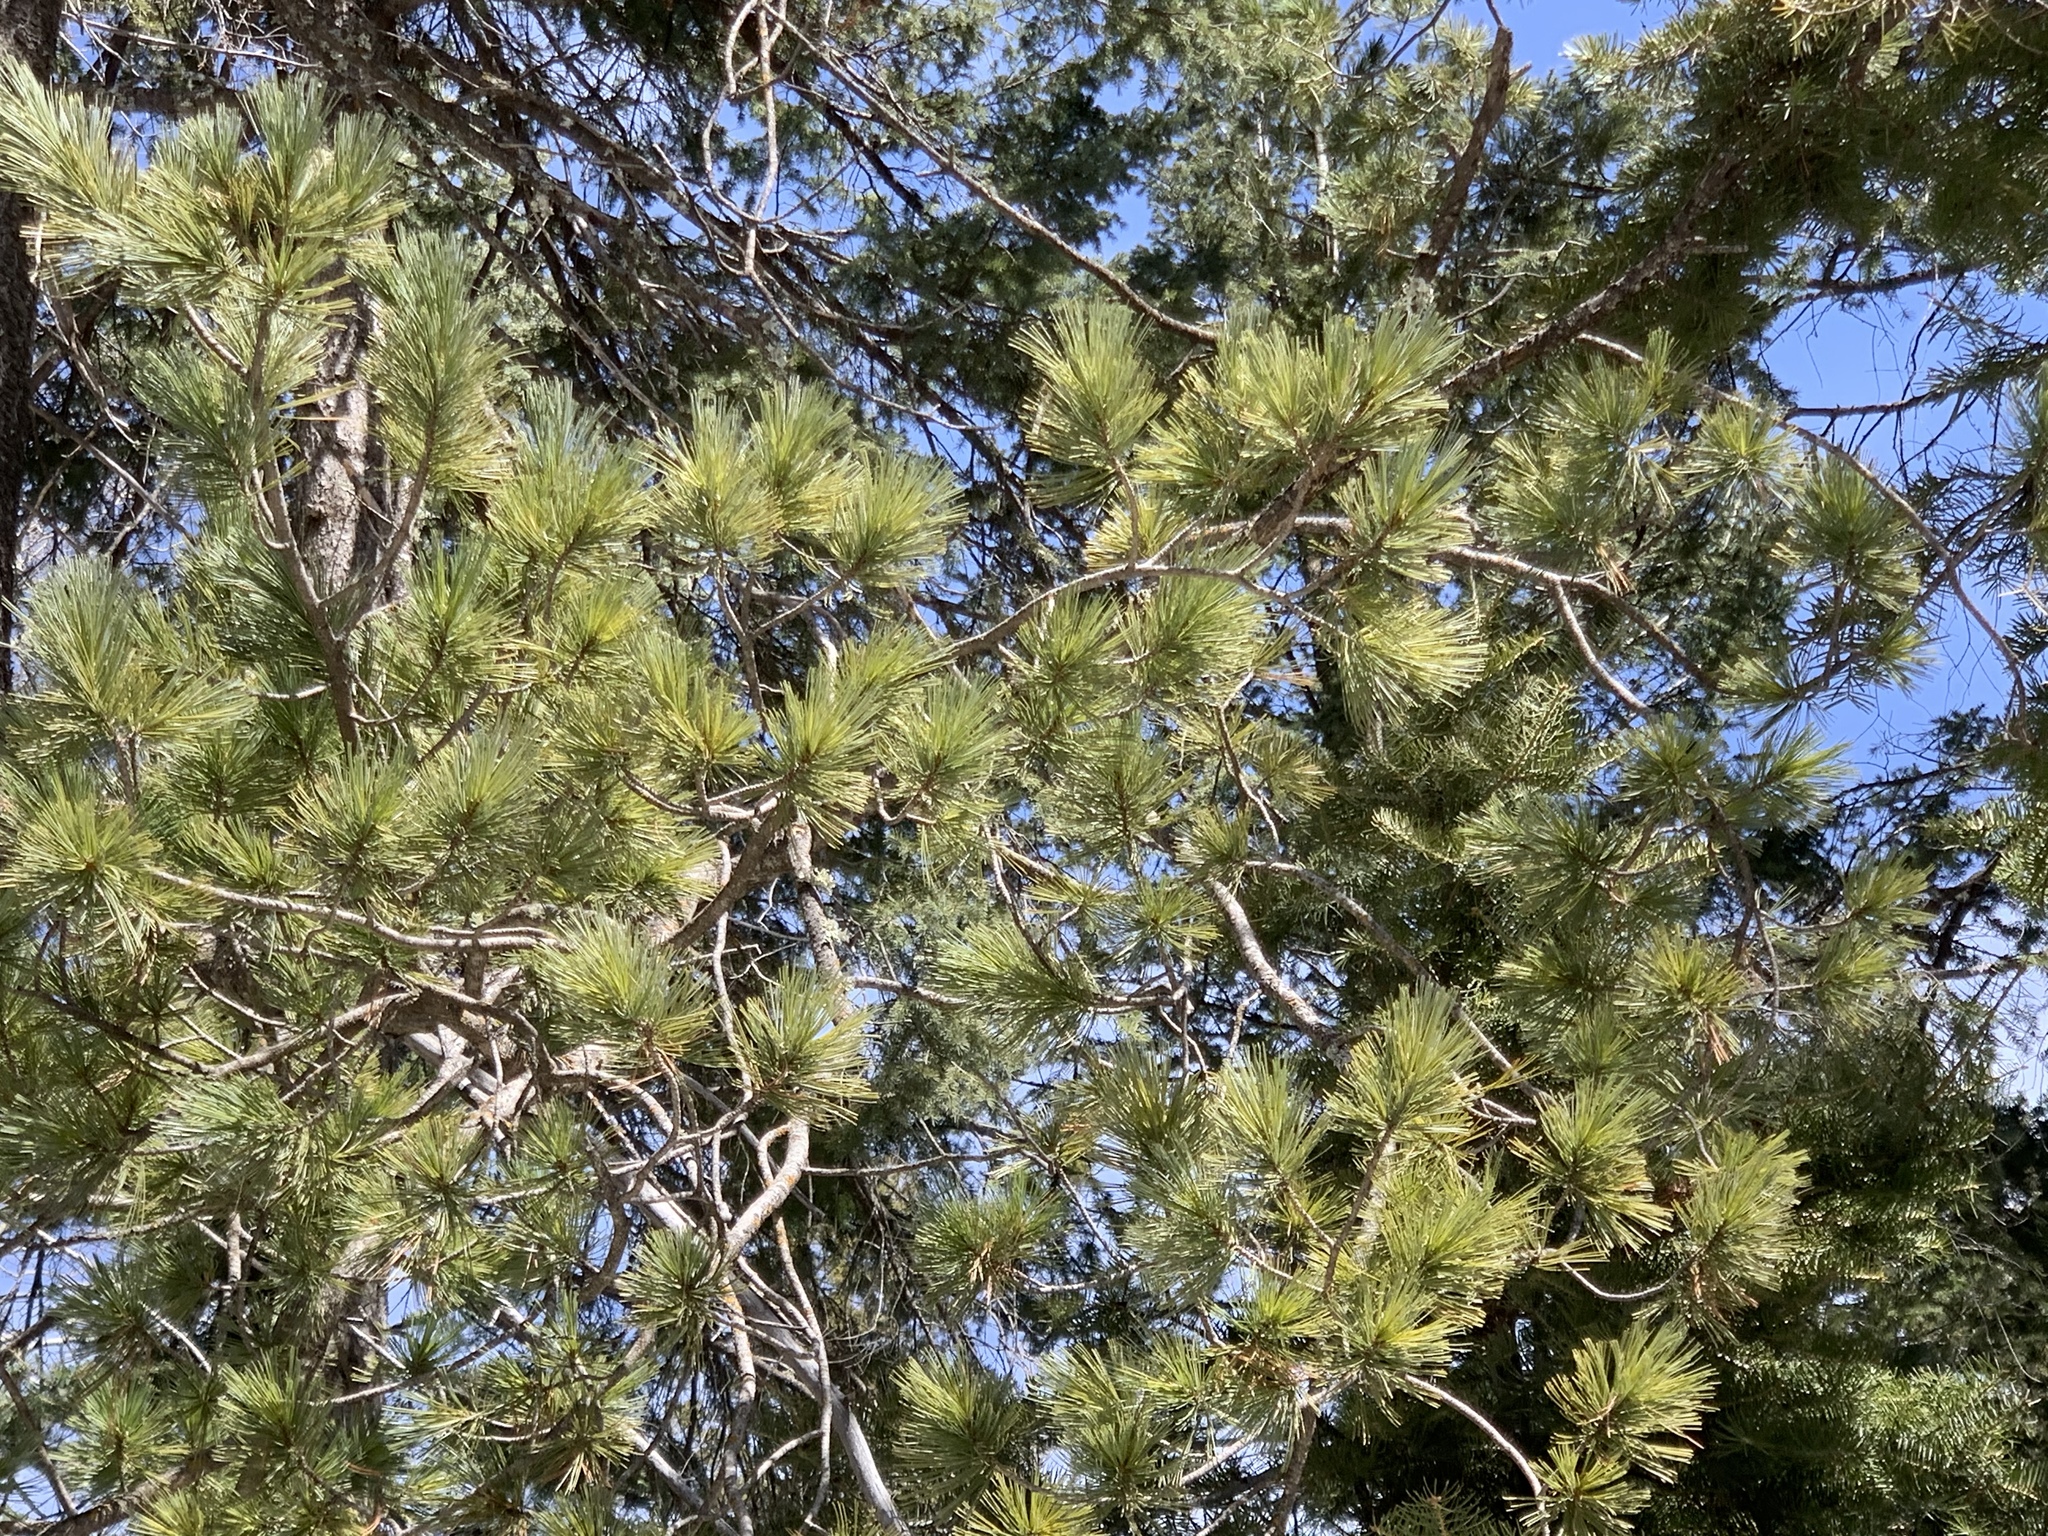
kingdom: Plantae
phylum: Tracheophyta
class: Pinopsida
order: Pinales
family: Pinaceae
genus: Pinus
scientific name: Pinus strobiformis
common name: Southwestern white pine
